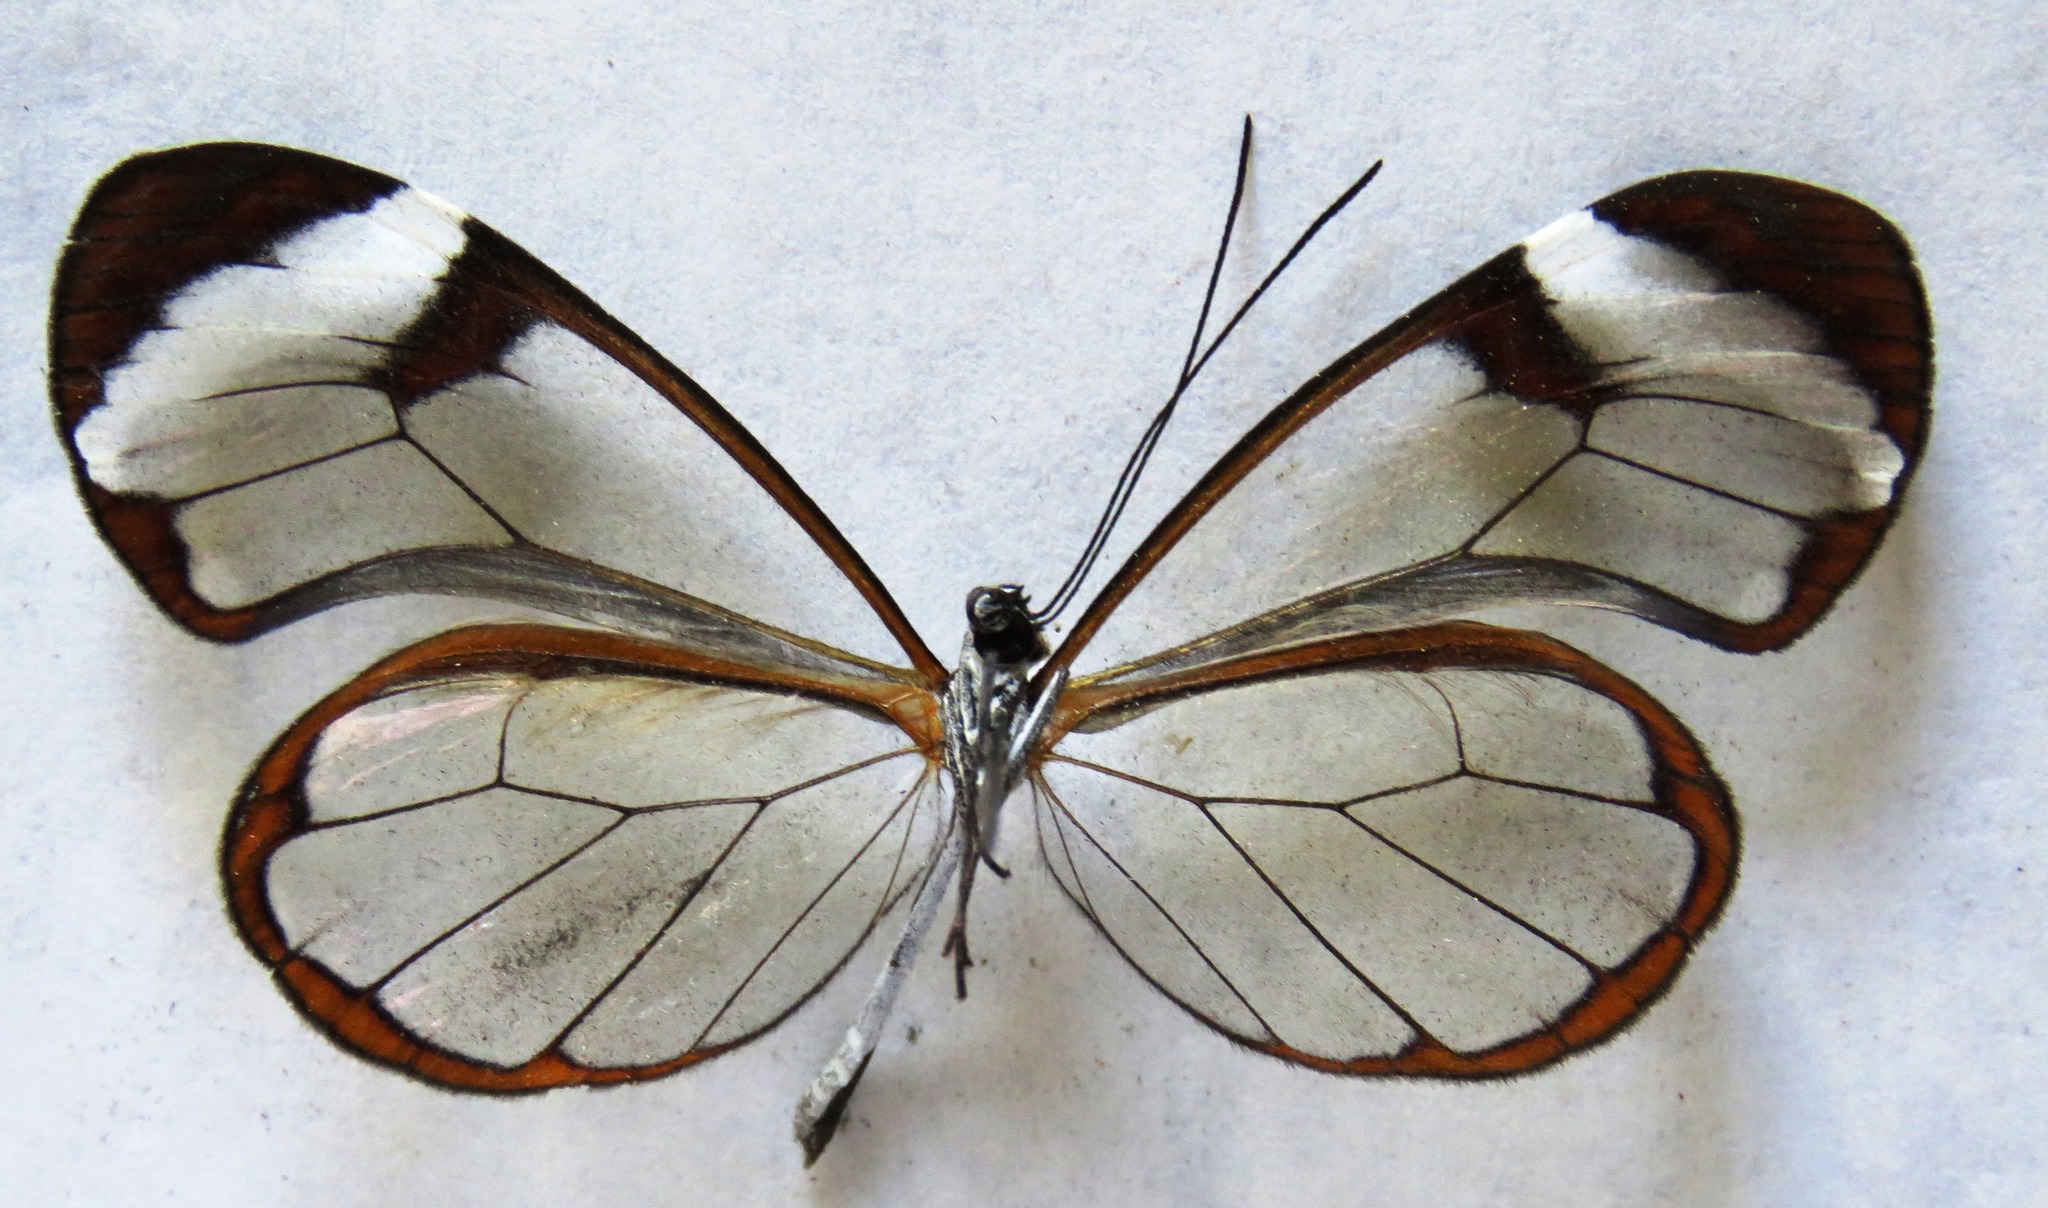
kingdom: Animalia
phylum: Arthropoda
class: Insecta
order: Lepidoptera
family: Nymphalidae
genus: Greta
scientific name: Greta morgane
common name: Thick-tipped greta
